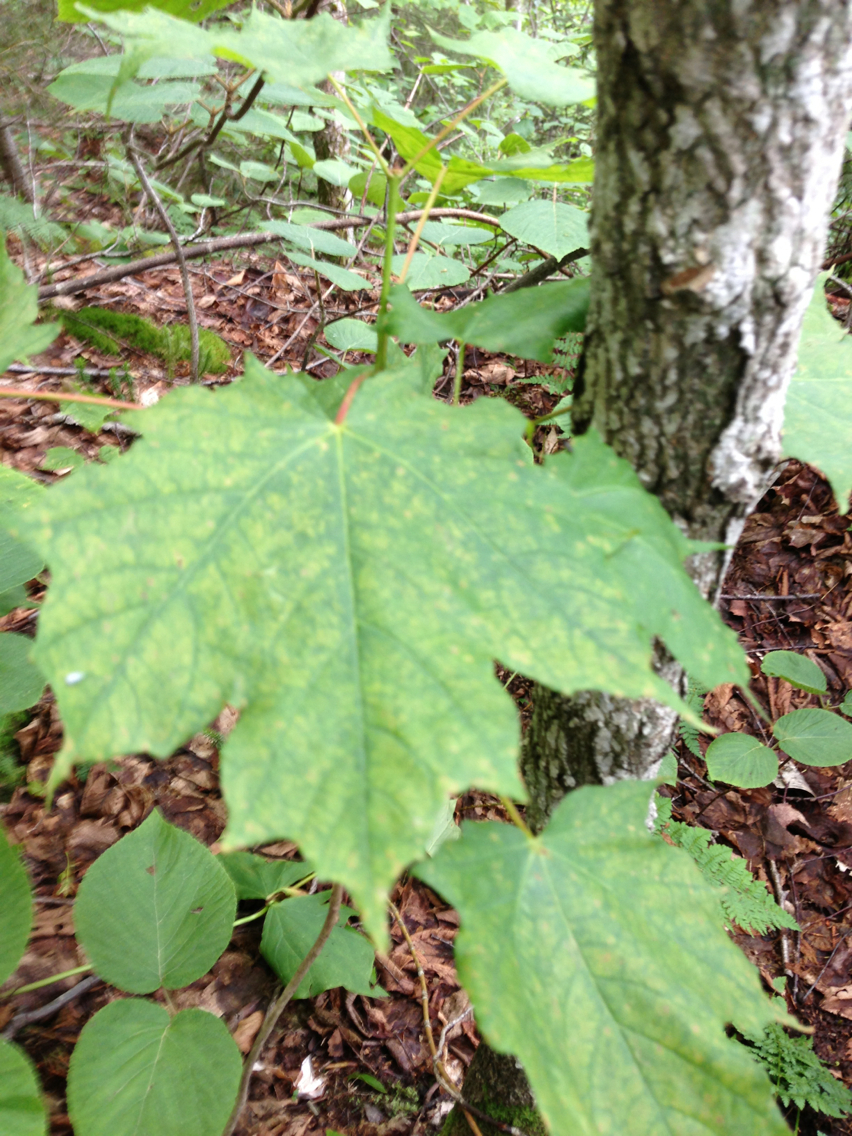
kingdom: Plantae
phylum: Tracheophyta
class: Magnoliopsida
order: Sapindales
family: Sapindaceae
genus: Acer
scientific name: Acer saccharum
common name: Sugar maple
